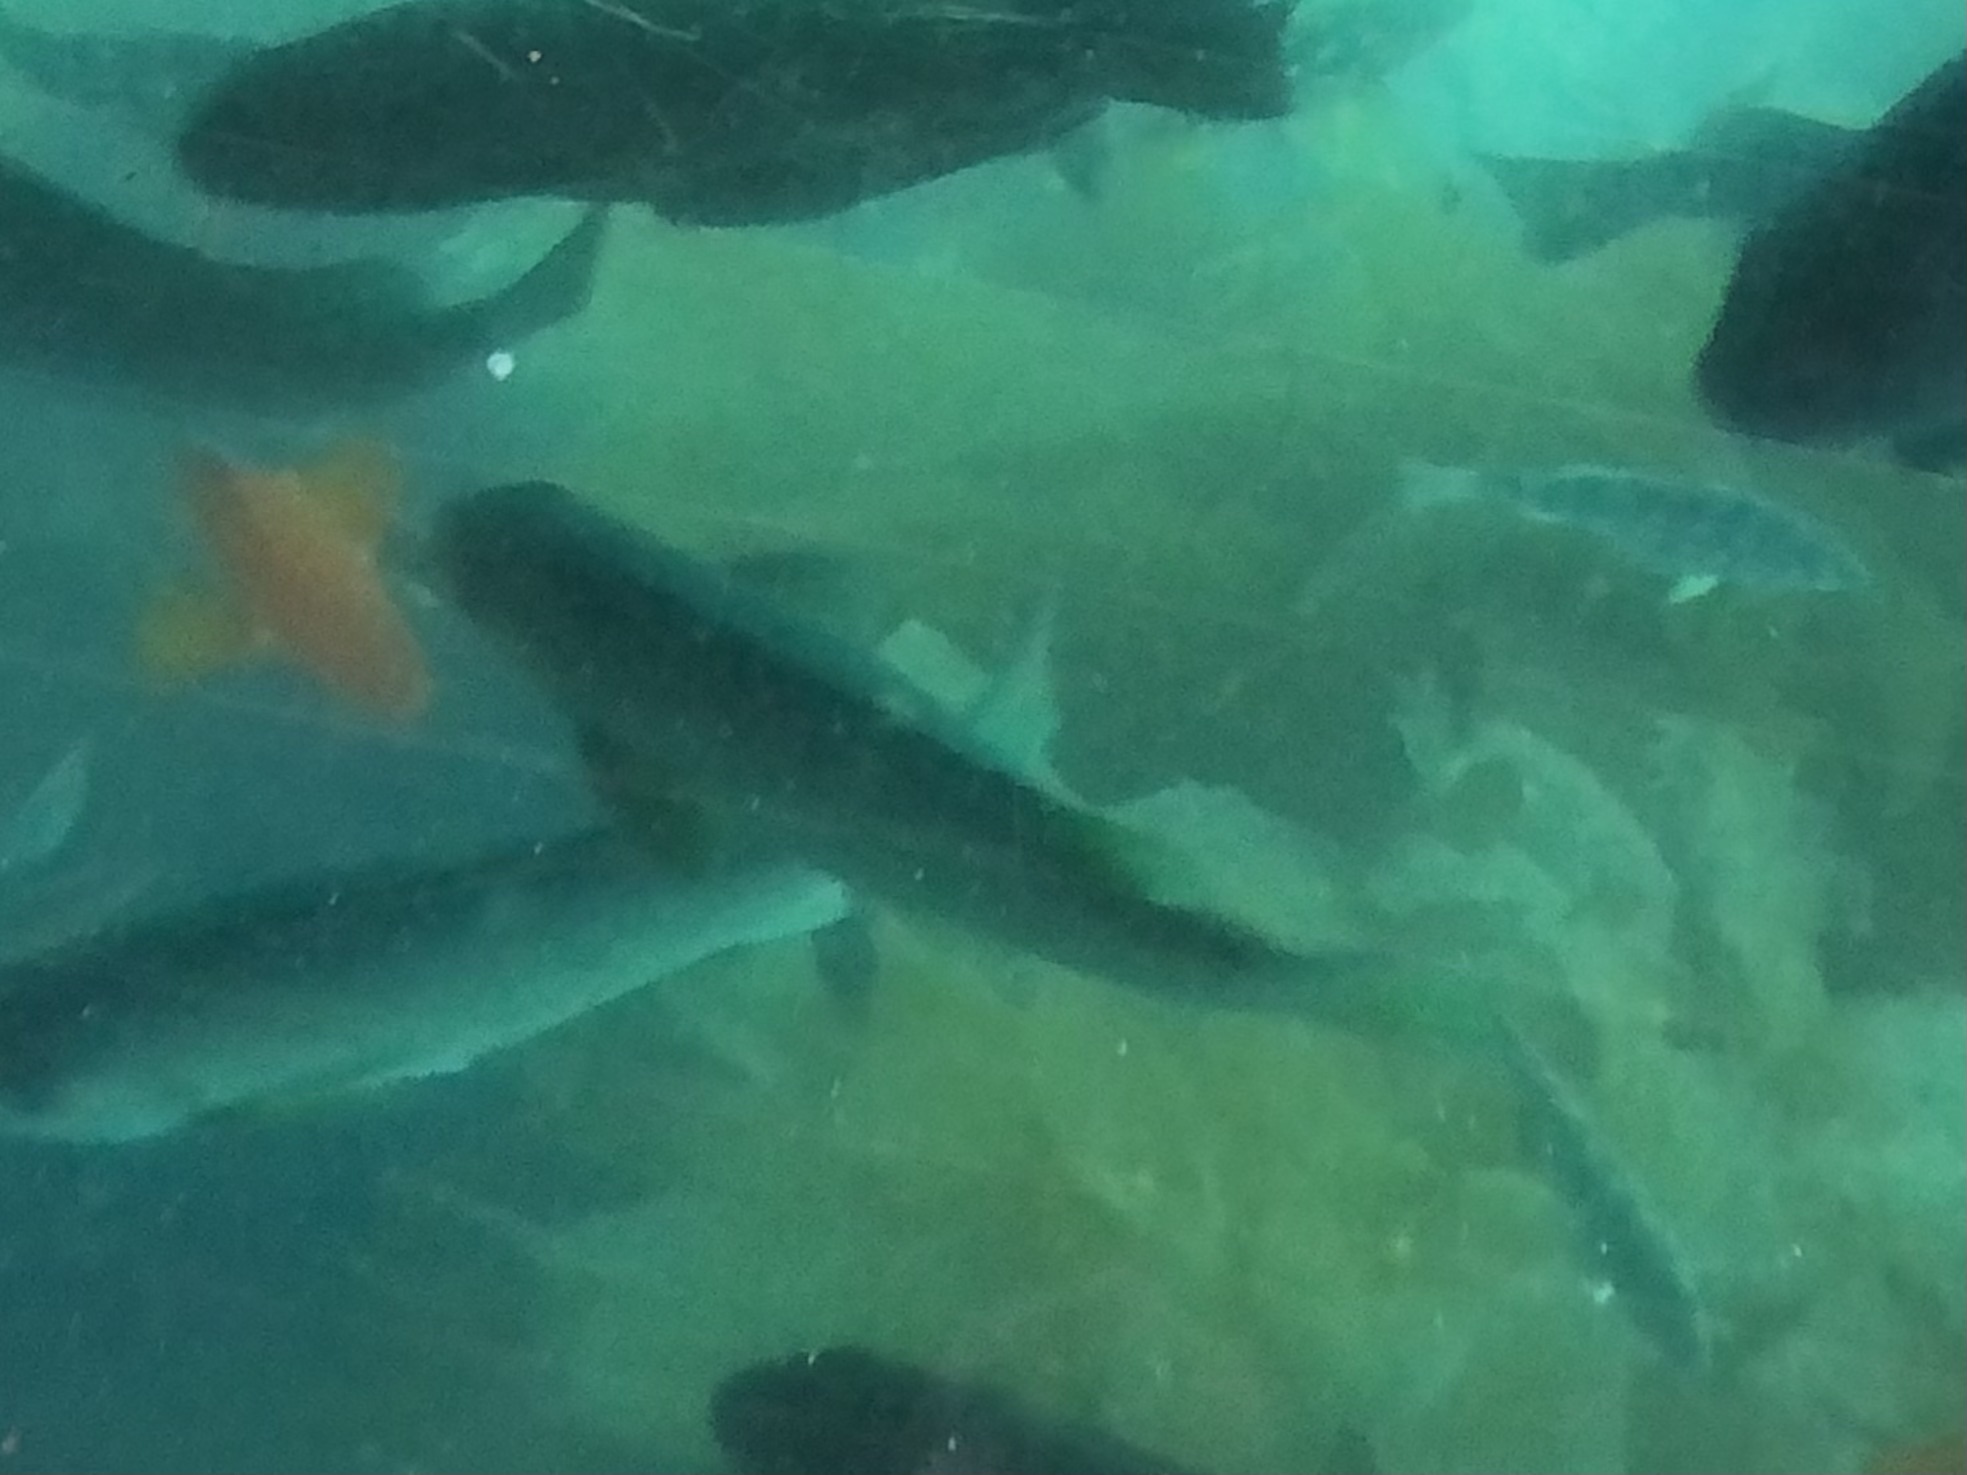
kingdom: Animalia
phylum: Chordata
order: Perciformes
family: Kyphosidae
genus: Girella
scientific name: Girella nigricans
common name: Opaleye
